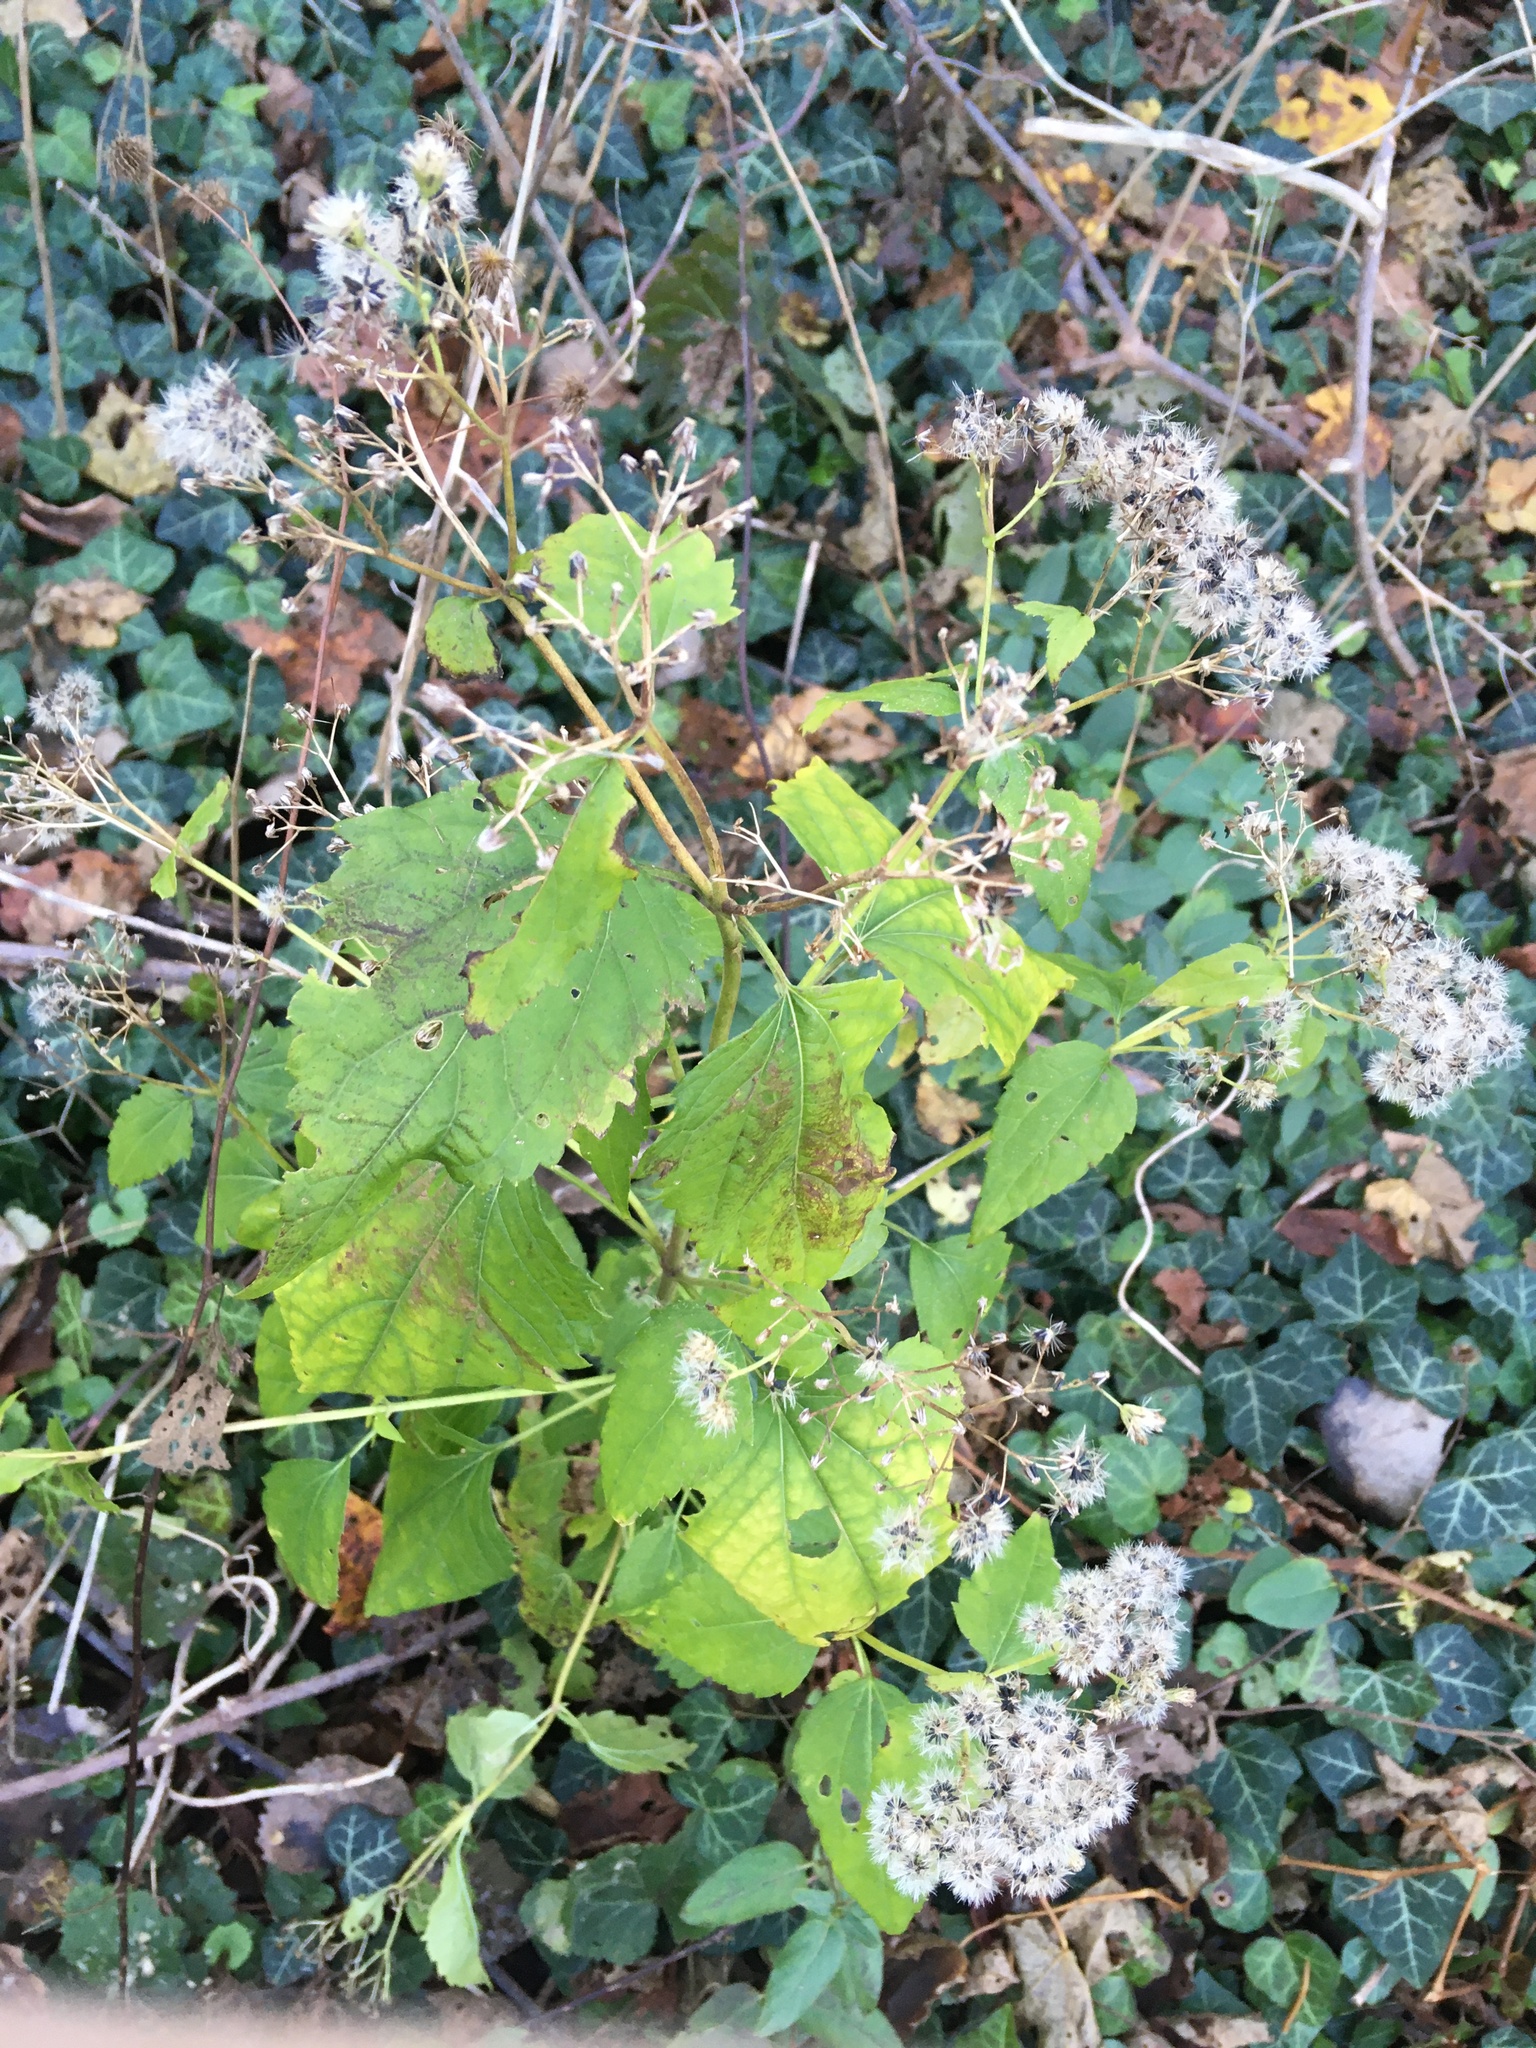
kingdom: Plantae
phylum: Tracheophyta
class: Magnoliopsida
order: Asterales
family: Asteraceae
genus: Ageratina
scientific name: Ageratina altissima
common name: White snakeroot
